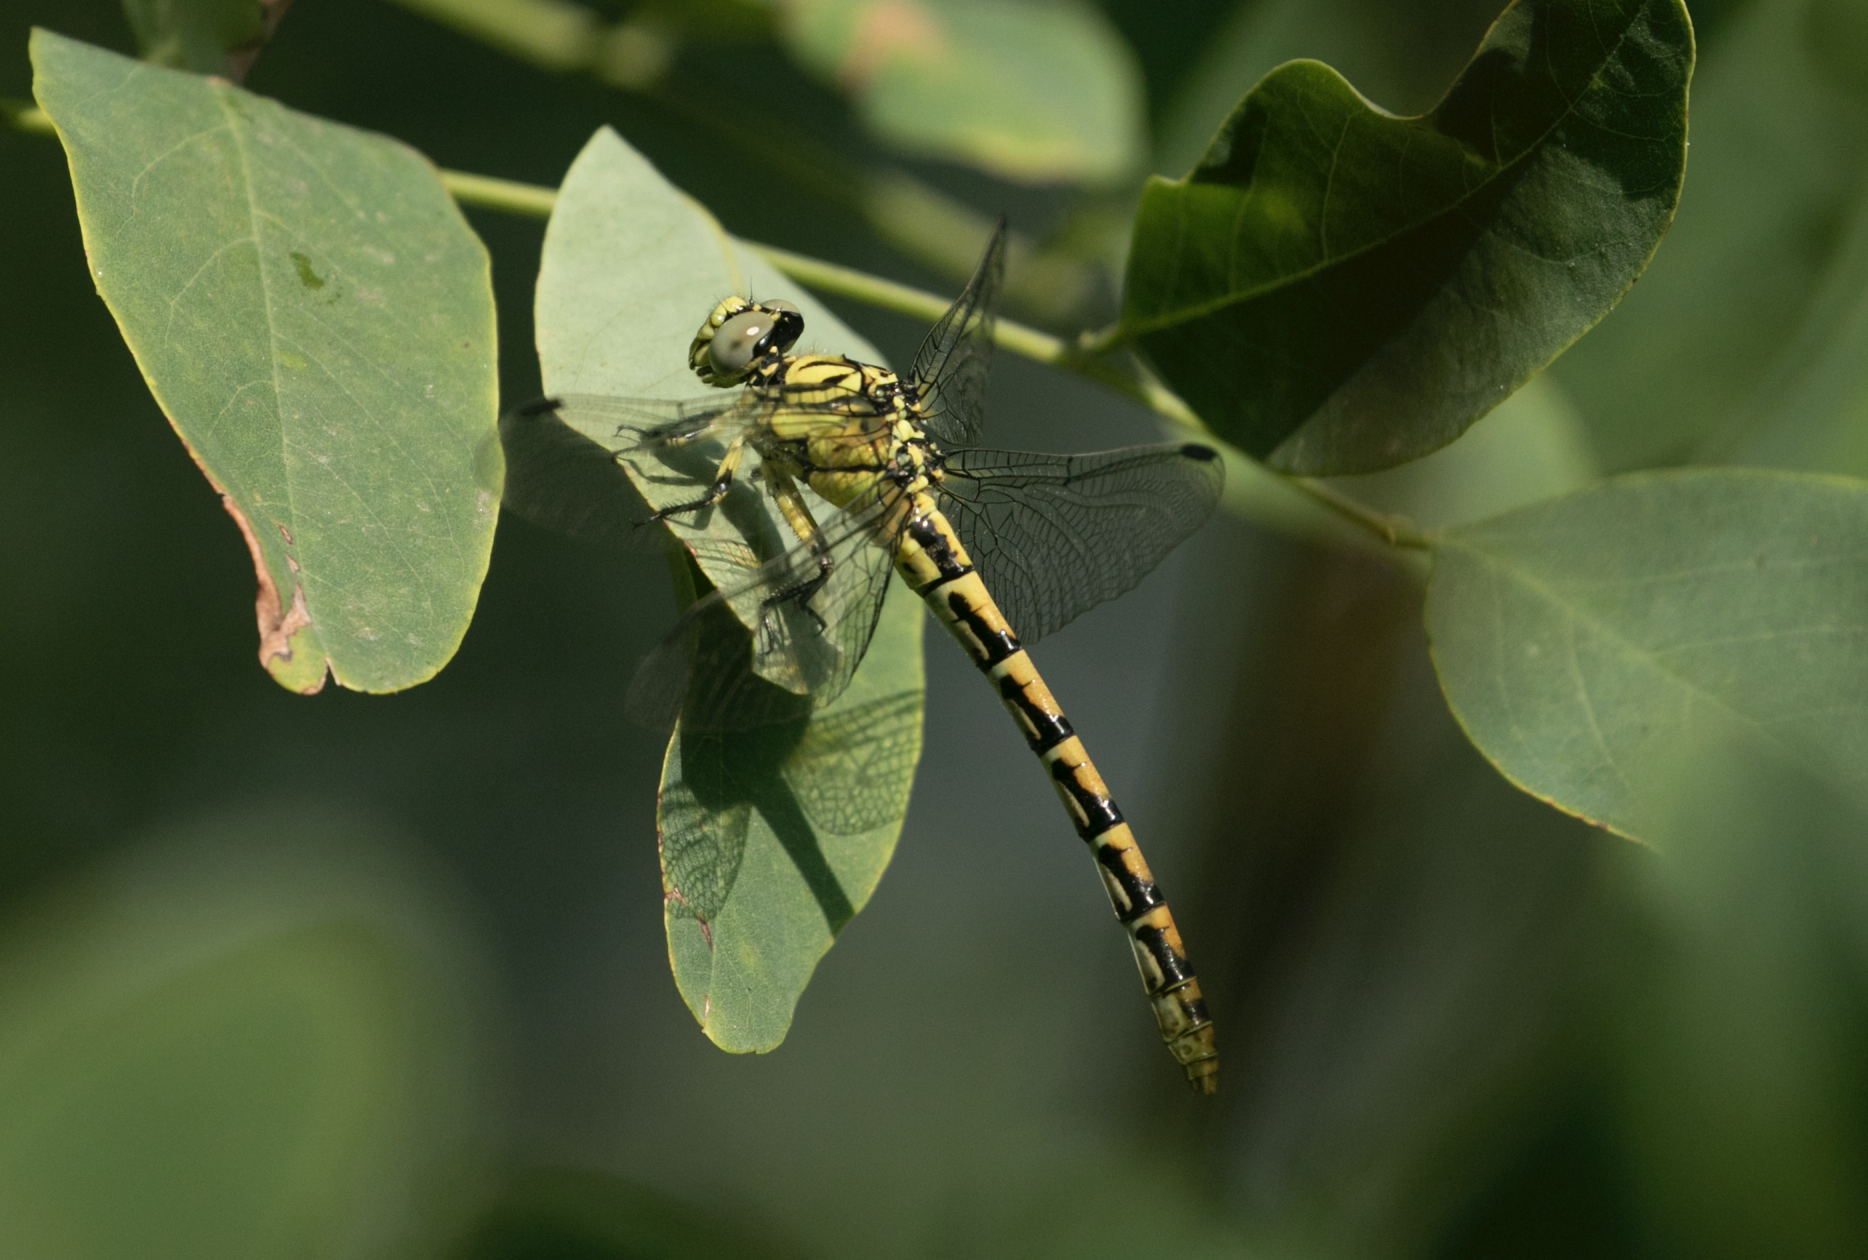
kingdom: Animalia
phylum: Arthropoda
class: Insecta
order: Odonata
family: Gomphidae
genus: Onychogomphus
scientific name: Onychogomphus forcipatus
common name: Small pincertail
